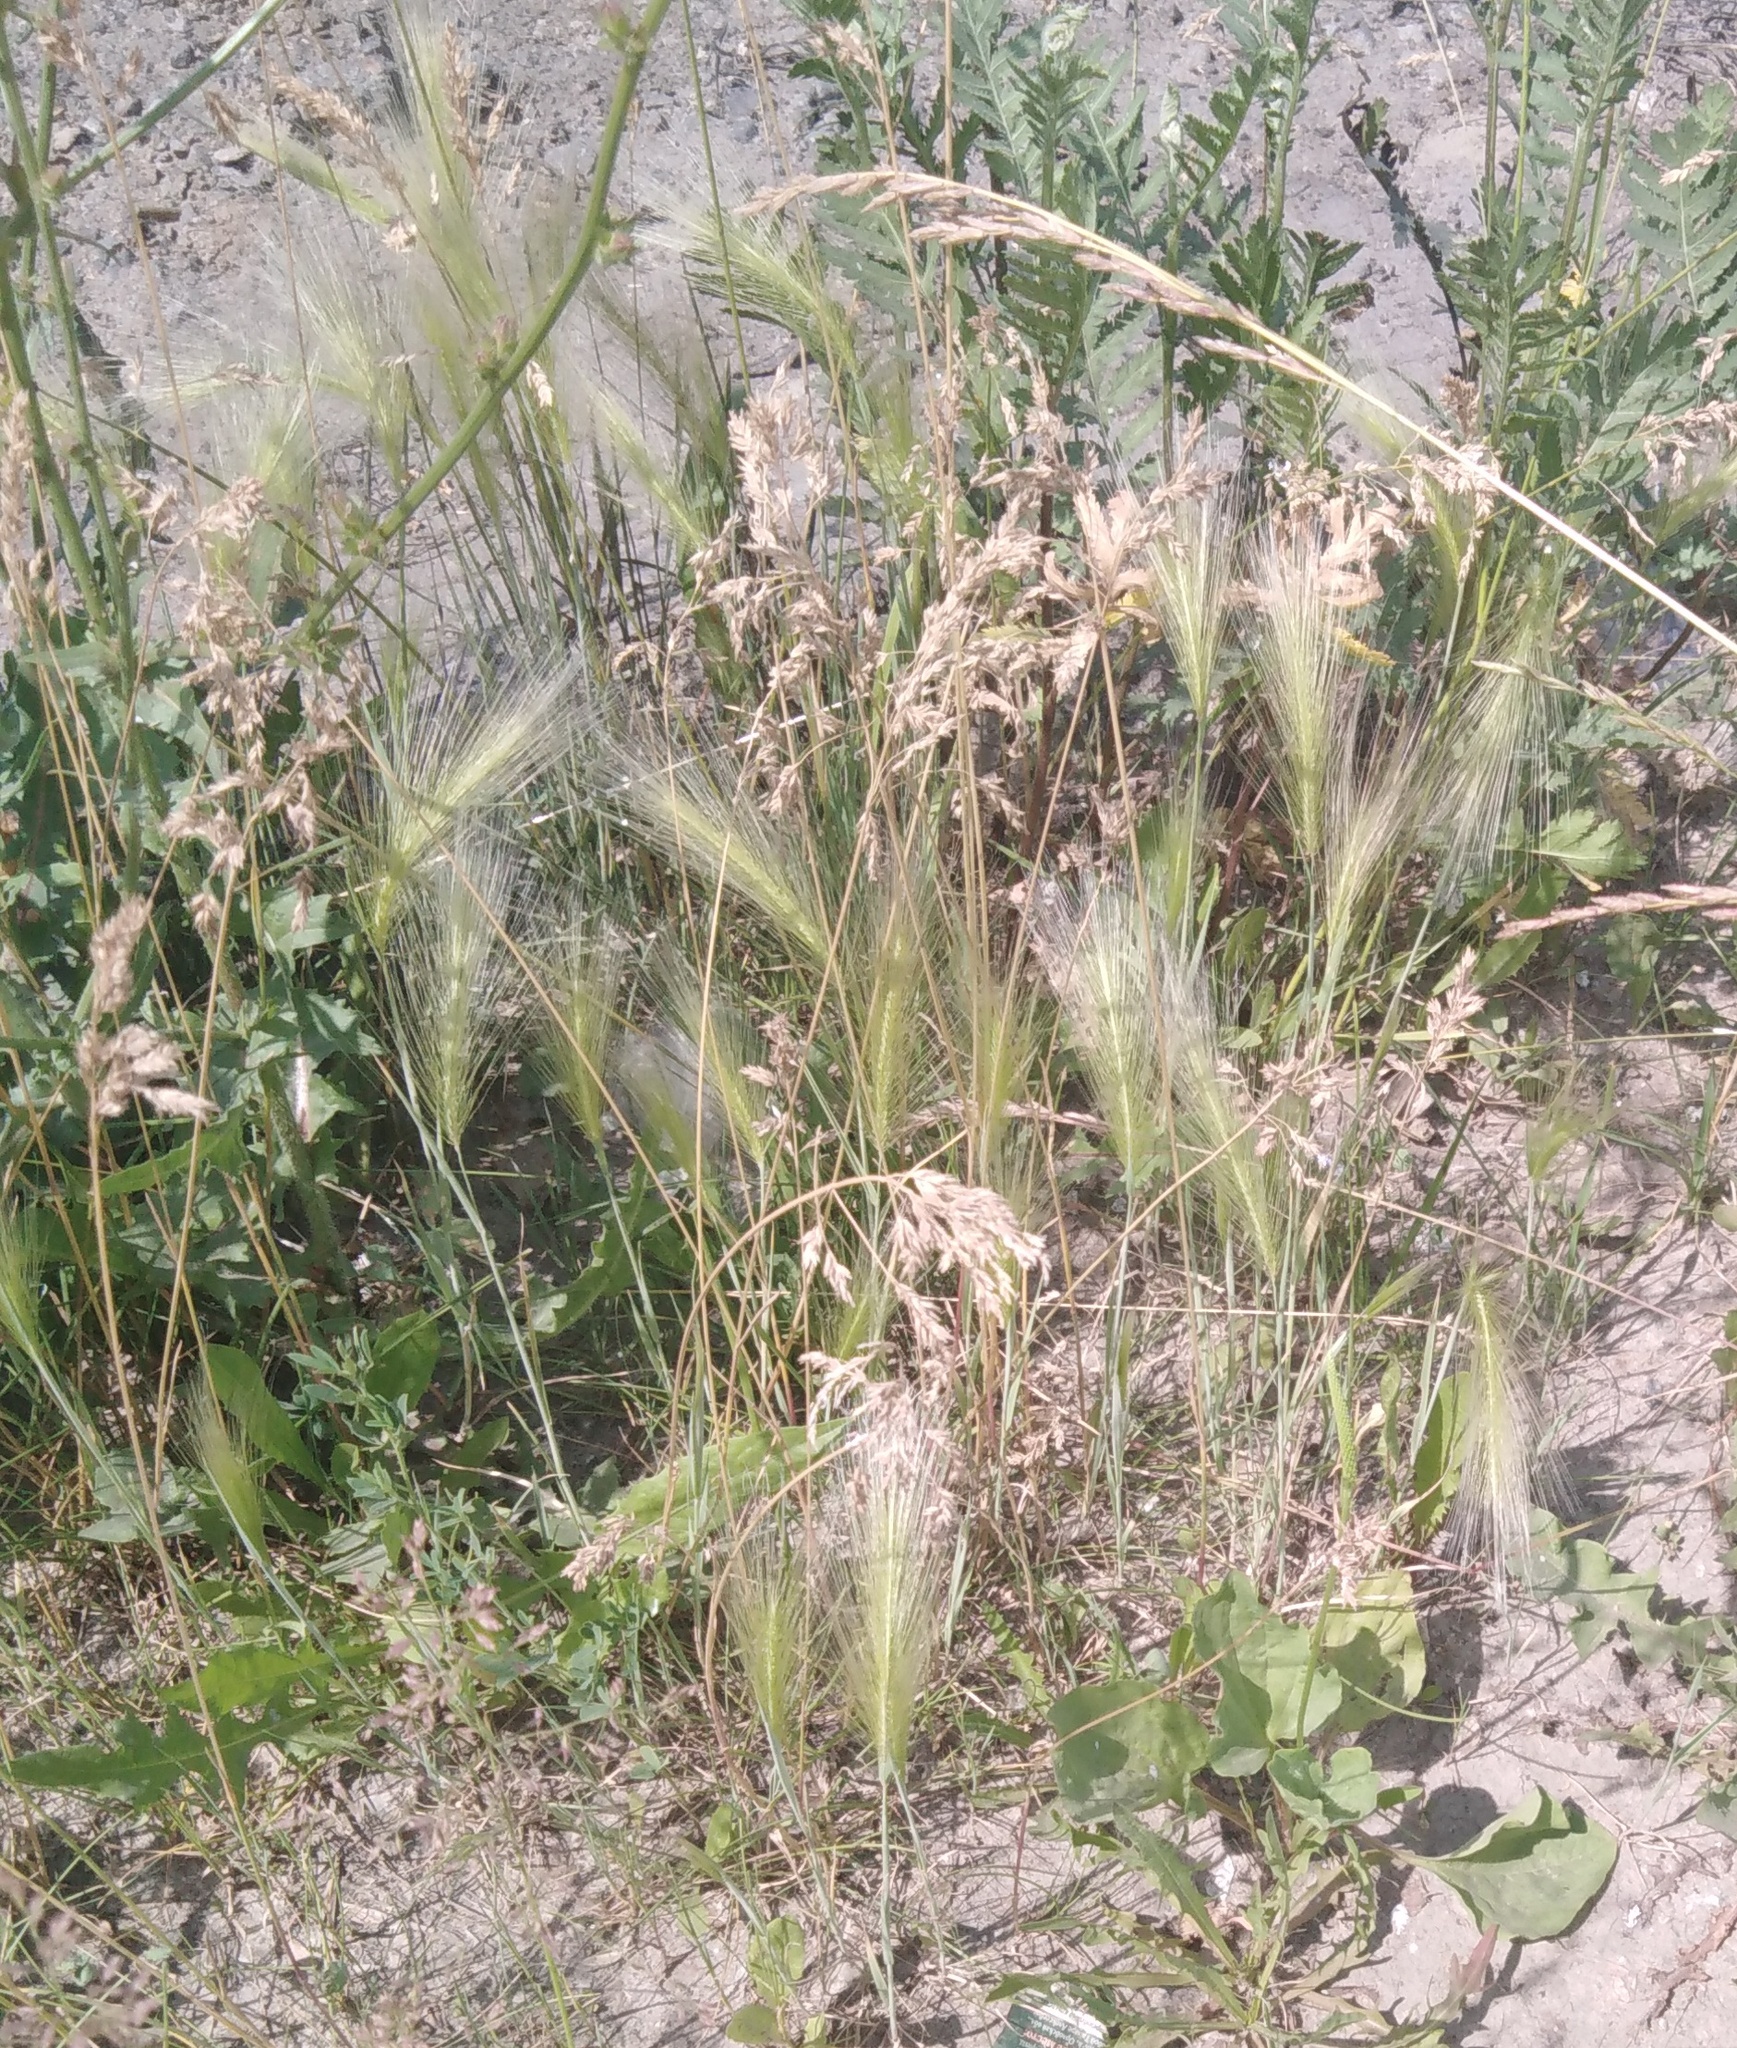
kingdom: Plantae
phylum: Tracheophyta
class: Liliopsida
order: Poales
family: Poaceae
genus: Hordeum
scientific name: Hordeum jubatum
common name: Foxtail barley
